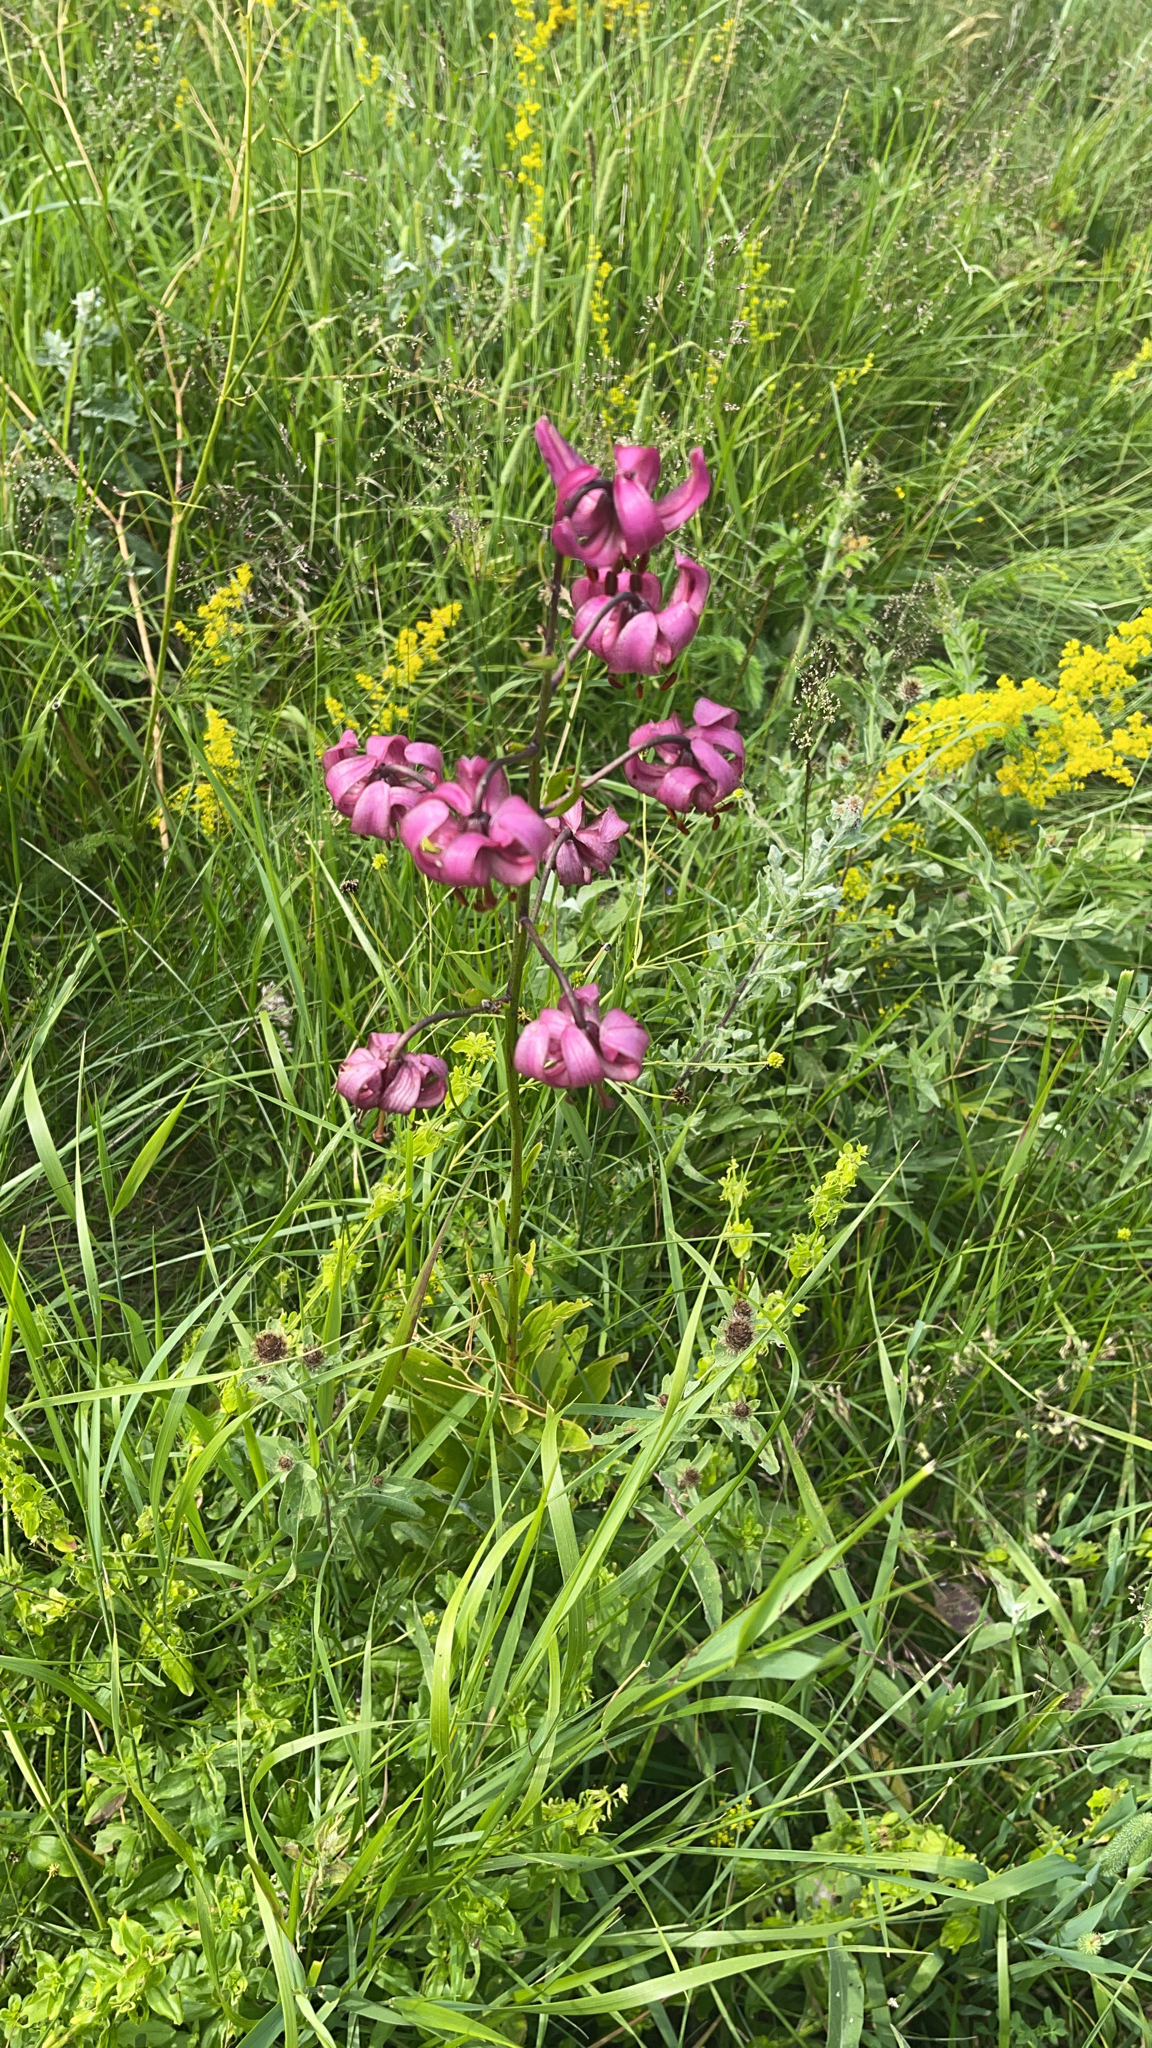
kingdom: Plantae
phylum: Tracheophyta
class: Liliopsida
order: Liliales
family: Liliaceae
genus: Lilium
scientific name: Lilium martagon
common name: Martagon lily
